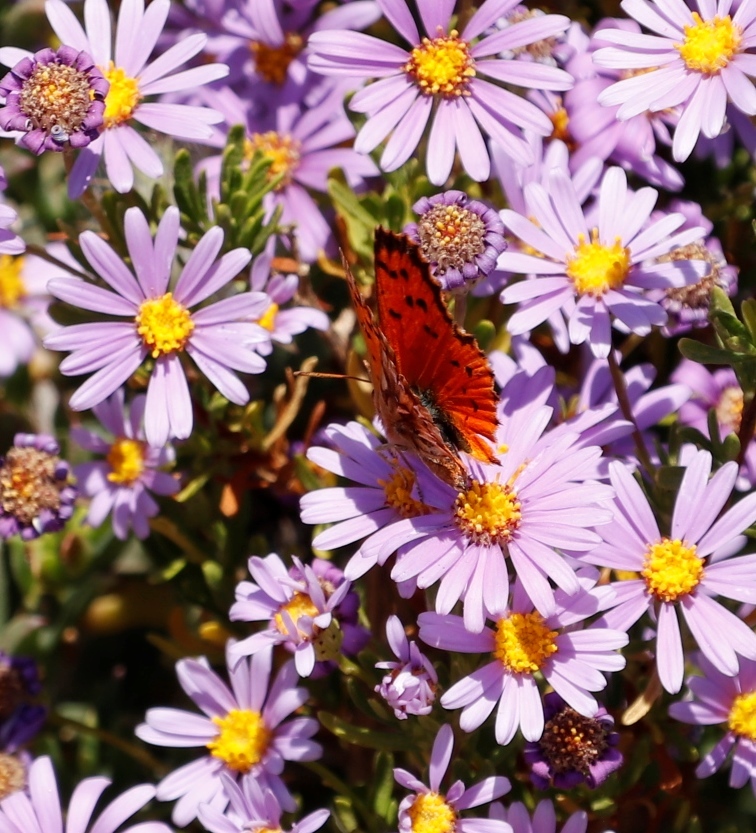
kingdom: Animalia
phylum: Arthropoda
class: Insecta
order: Lepidoptera
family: Lycaenidae
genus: Chrysoritis
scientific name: Chrysoritis
